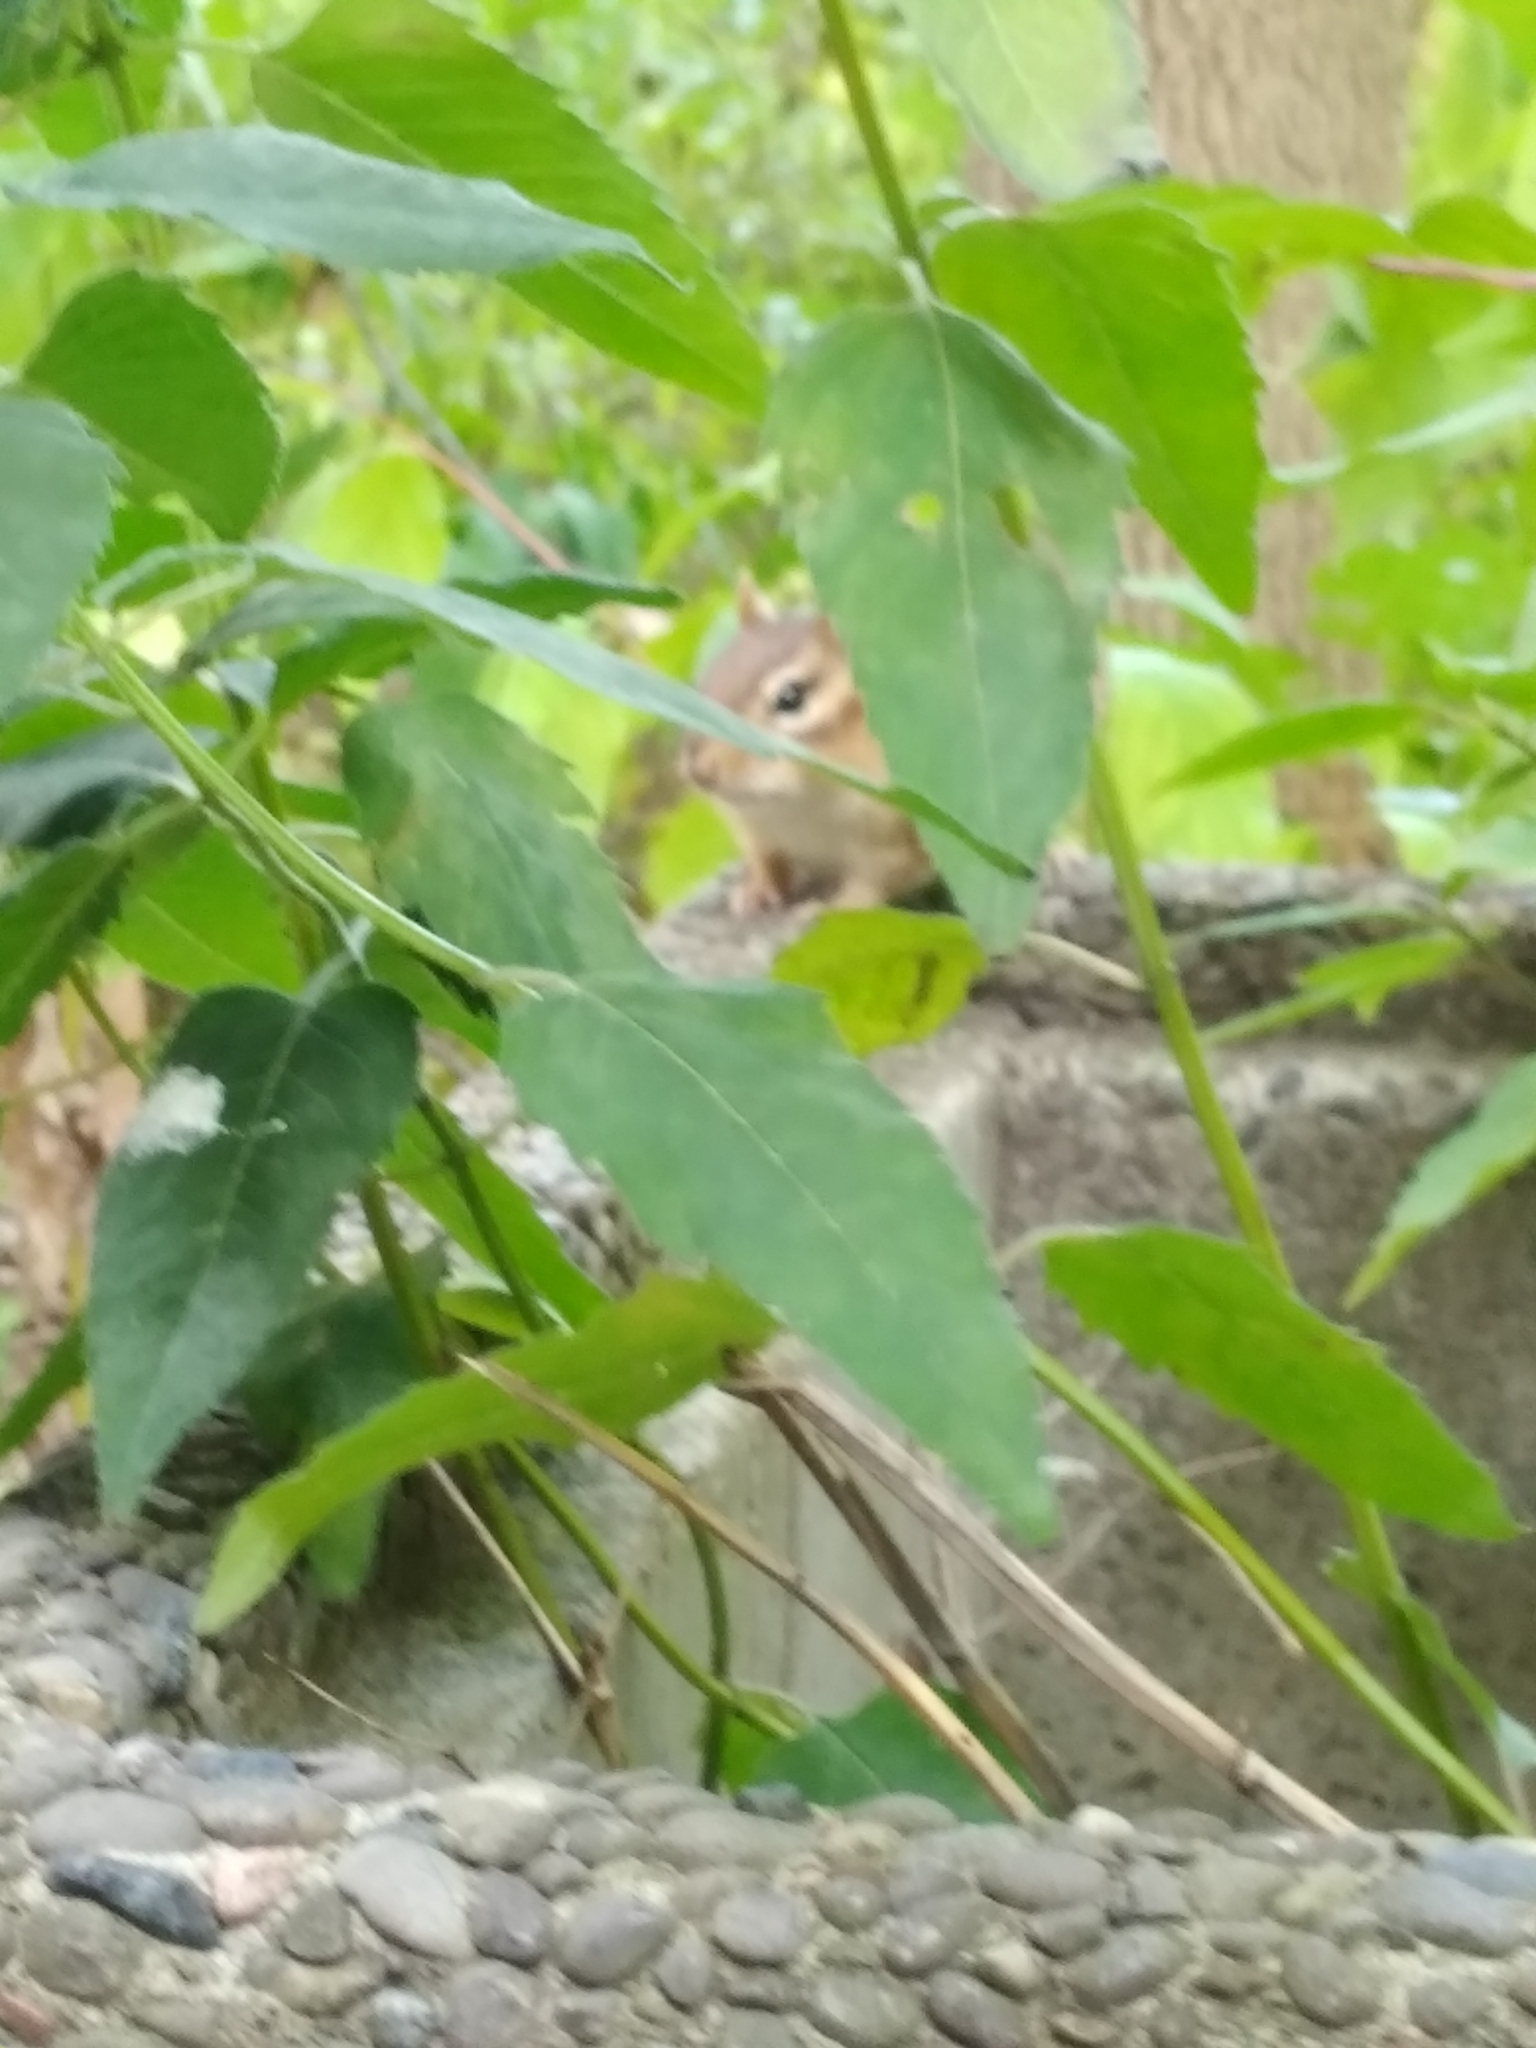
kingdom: Animalia
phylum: Chordata
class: Mammalia
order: Rodentia
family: Sciuridae
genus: Tamias
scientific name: Tamias striatus
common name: Eastern chipmunk
